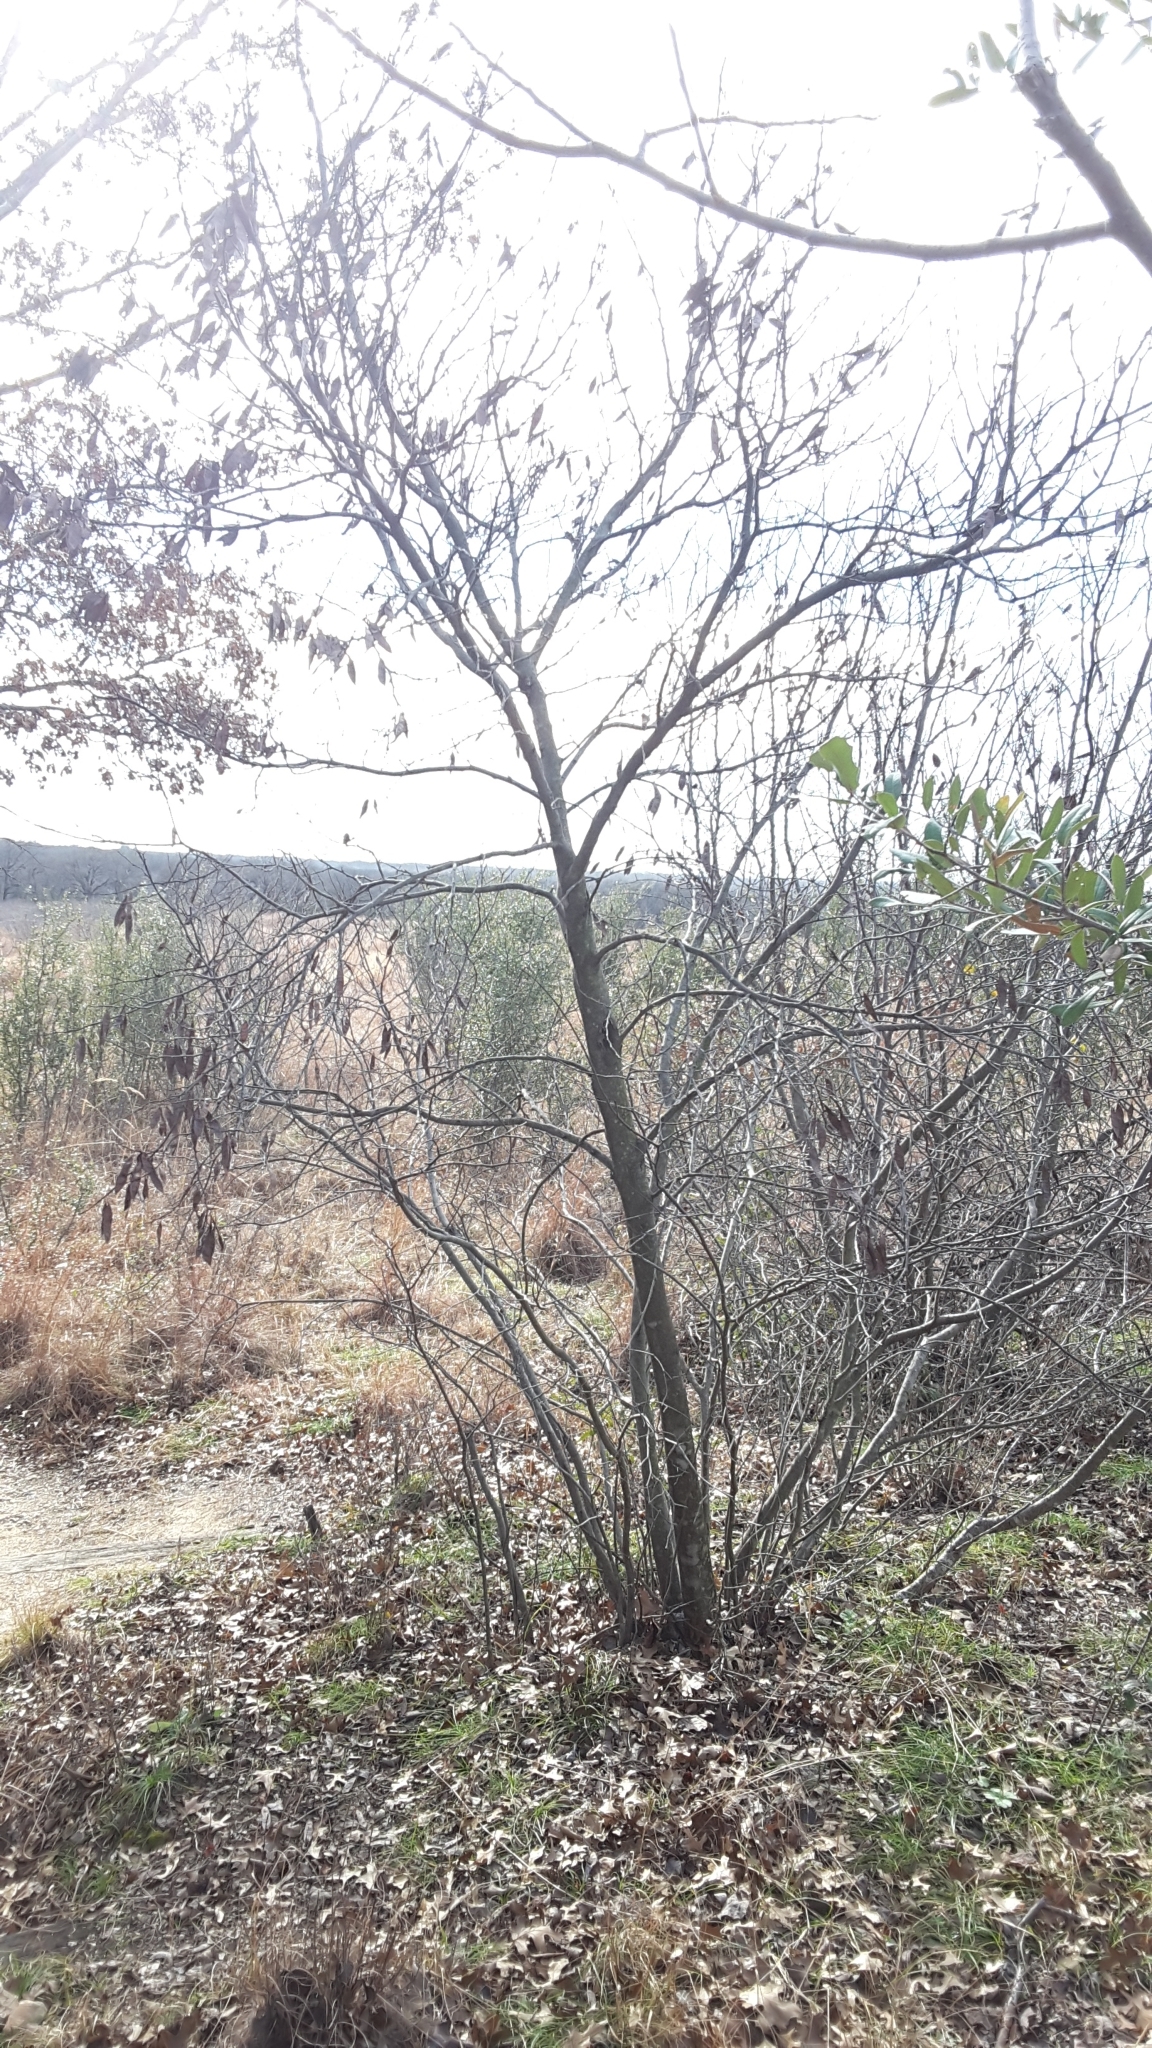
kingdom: Plantae
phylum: Tracheophyta
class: Magnoliopsida
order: Fabales
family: Fabaceae
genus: Cercis
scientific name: Cercis canadensis
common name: Eastern redbud
